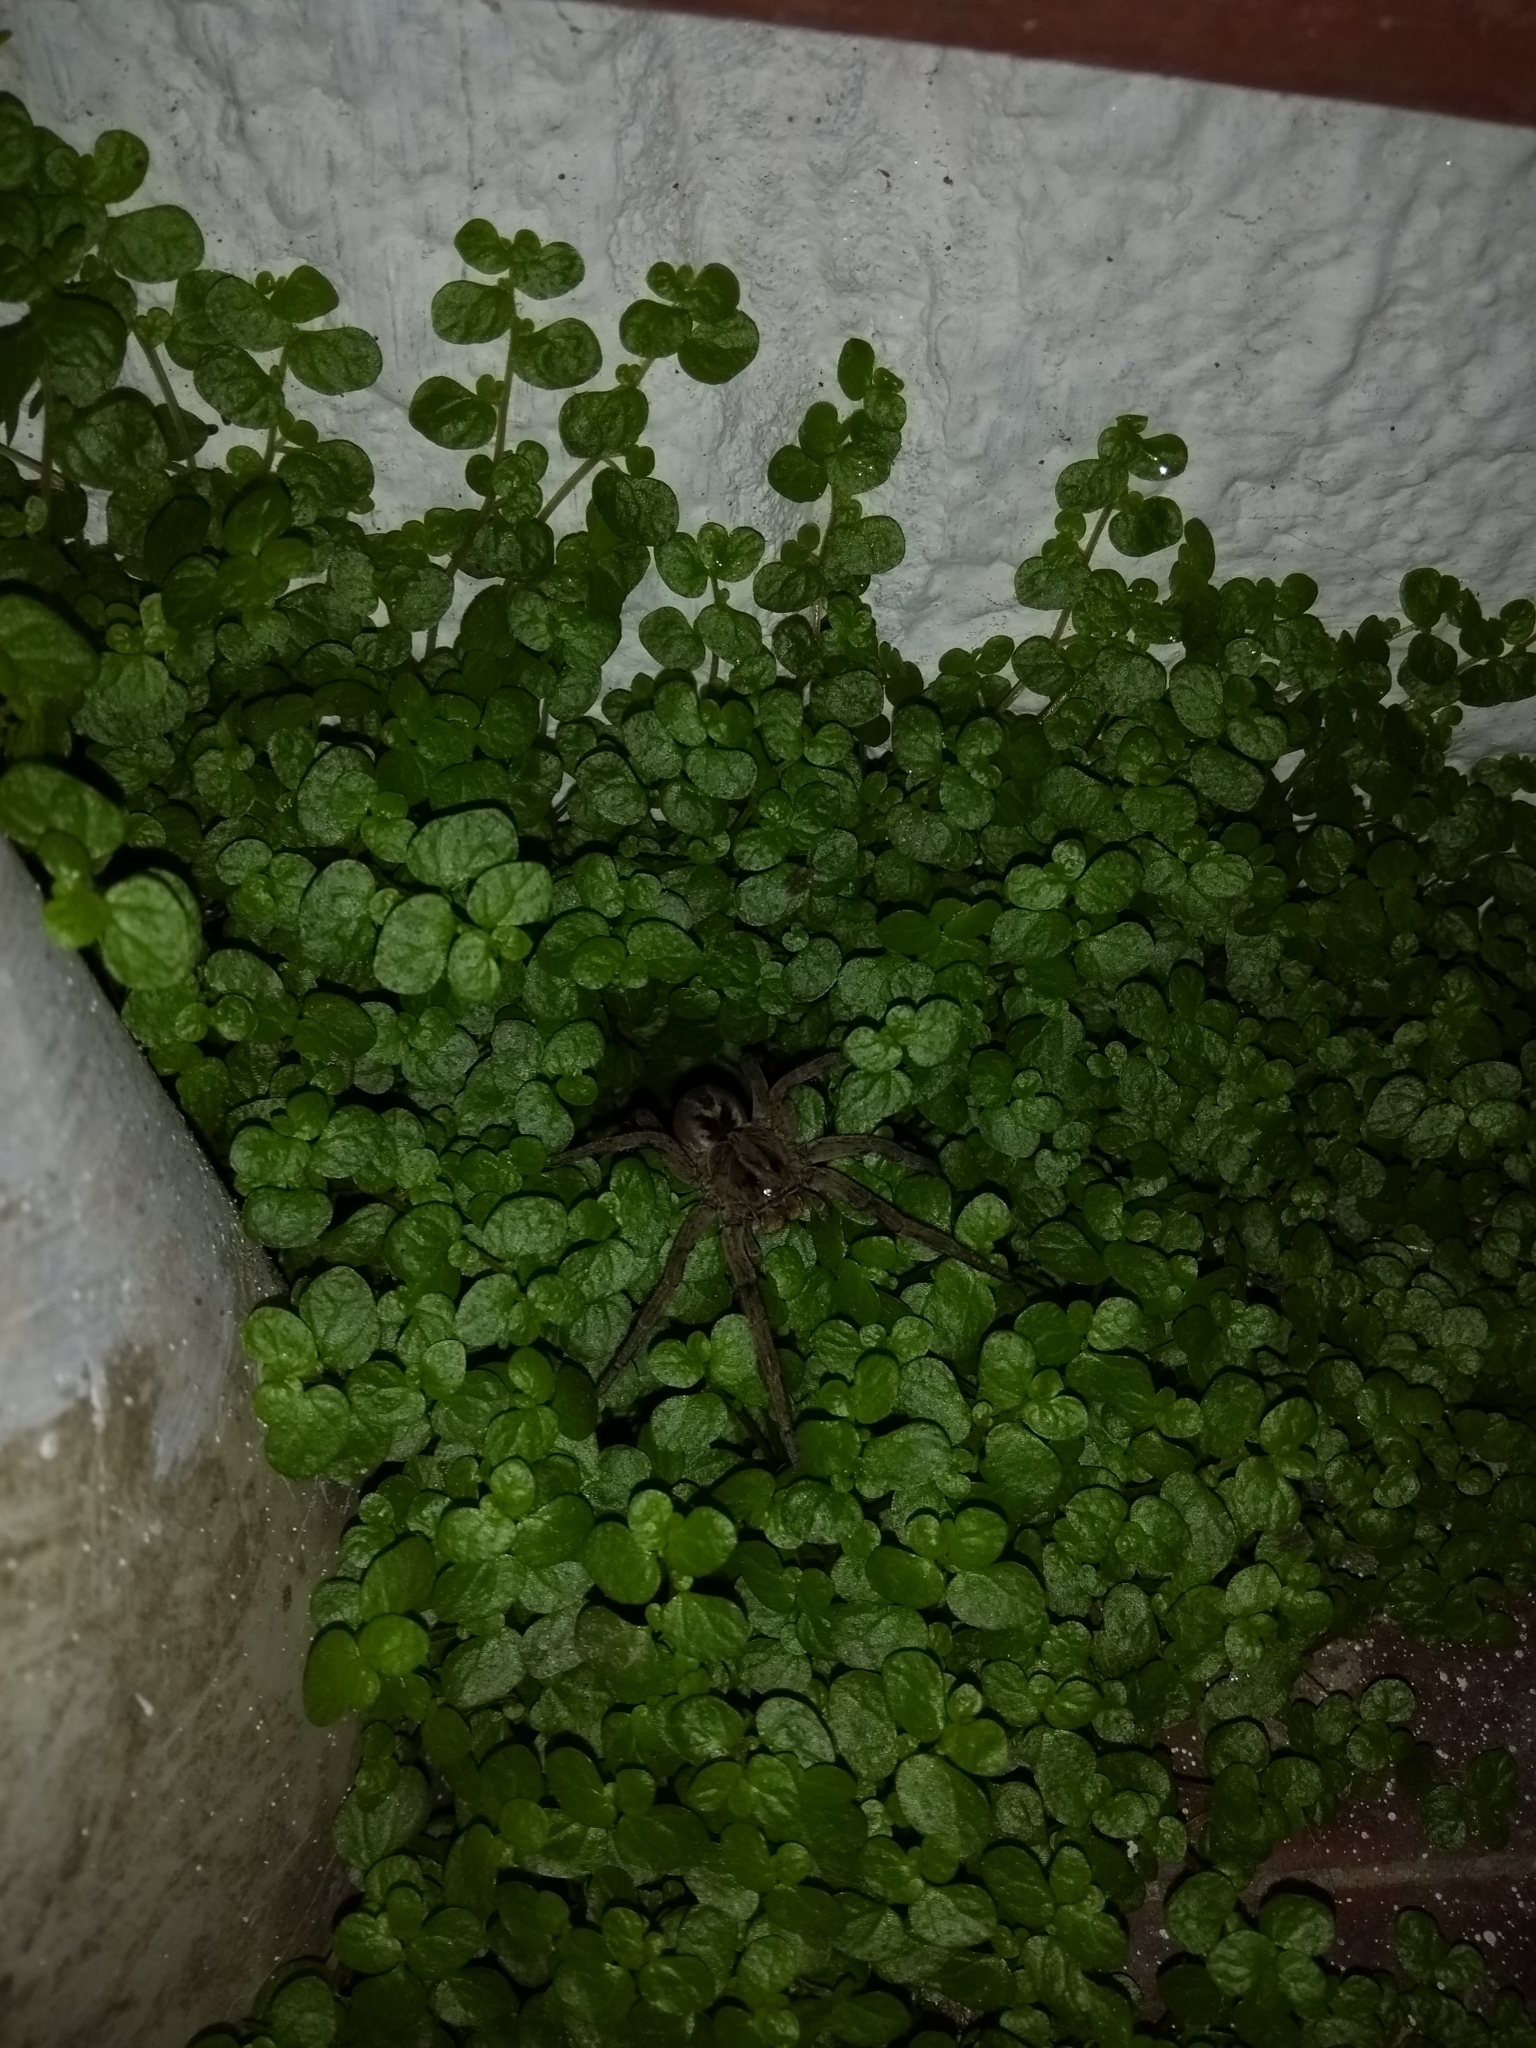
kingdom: Animalia
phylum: Arthropoda
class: Arachnida
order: Araneae
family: Lycosidae
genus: Lycosa
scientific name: Lycosa erythrognatha
